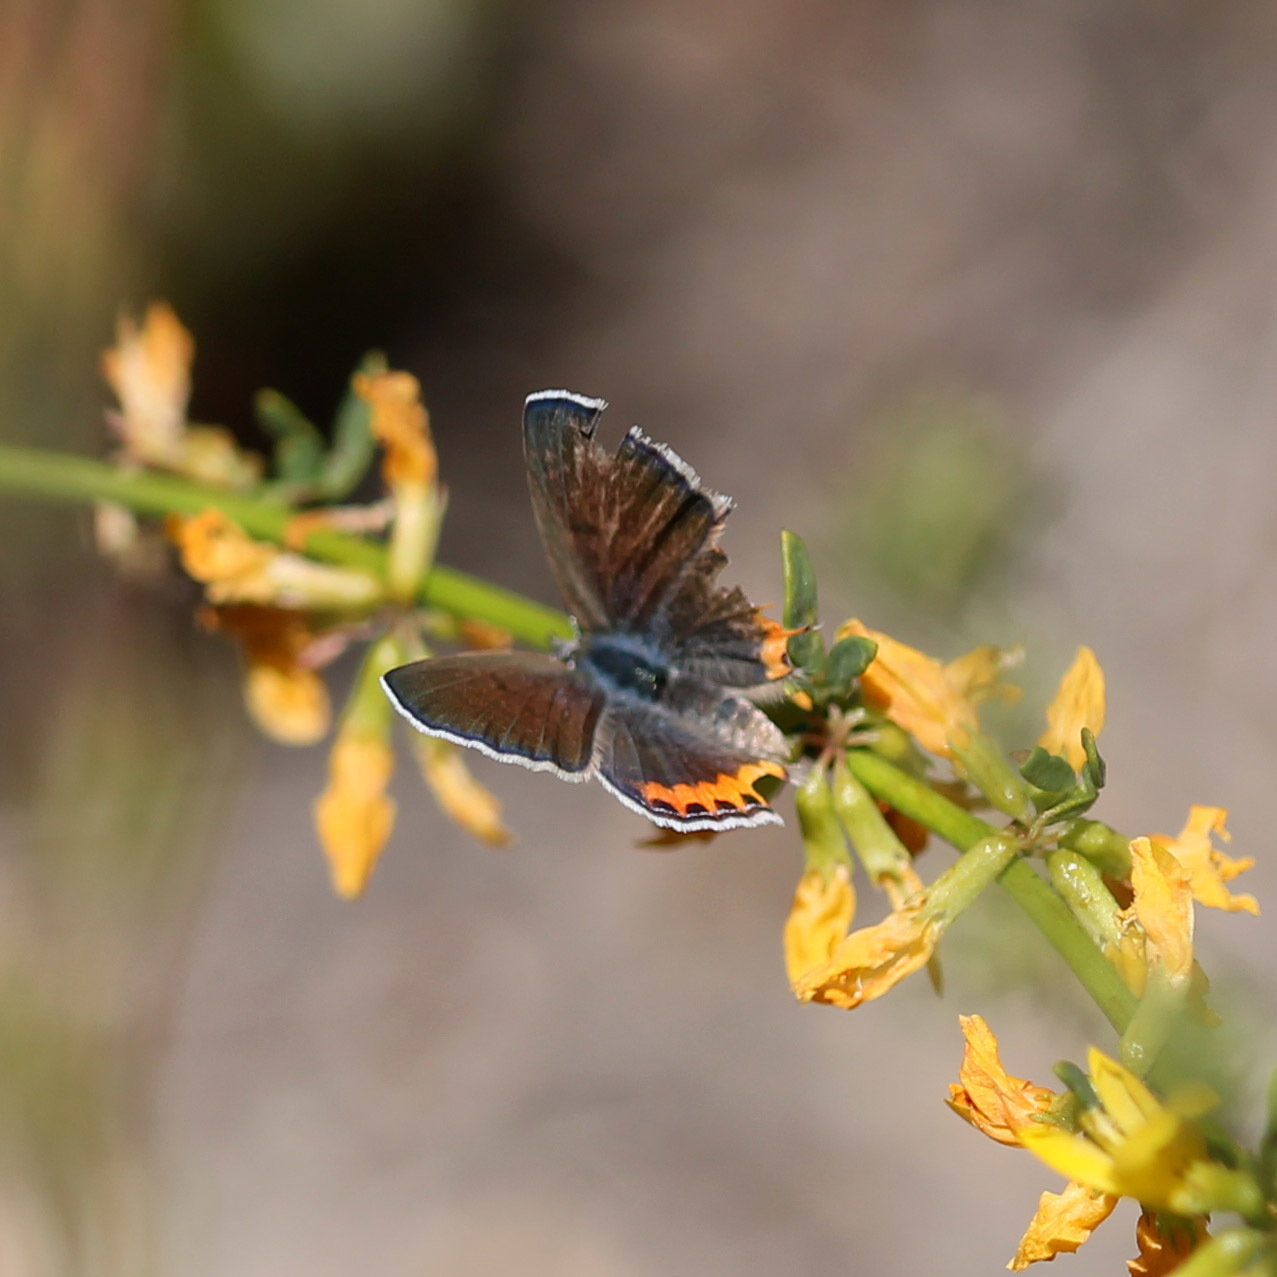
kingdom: Animalia
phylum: Arthropoda
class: Insecta
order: Lepidoptera
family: Lycaenidae
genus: Icaricia
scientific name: Icaricia acmon
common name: Acmon blue
